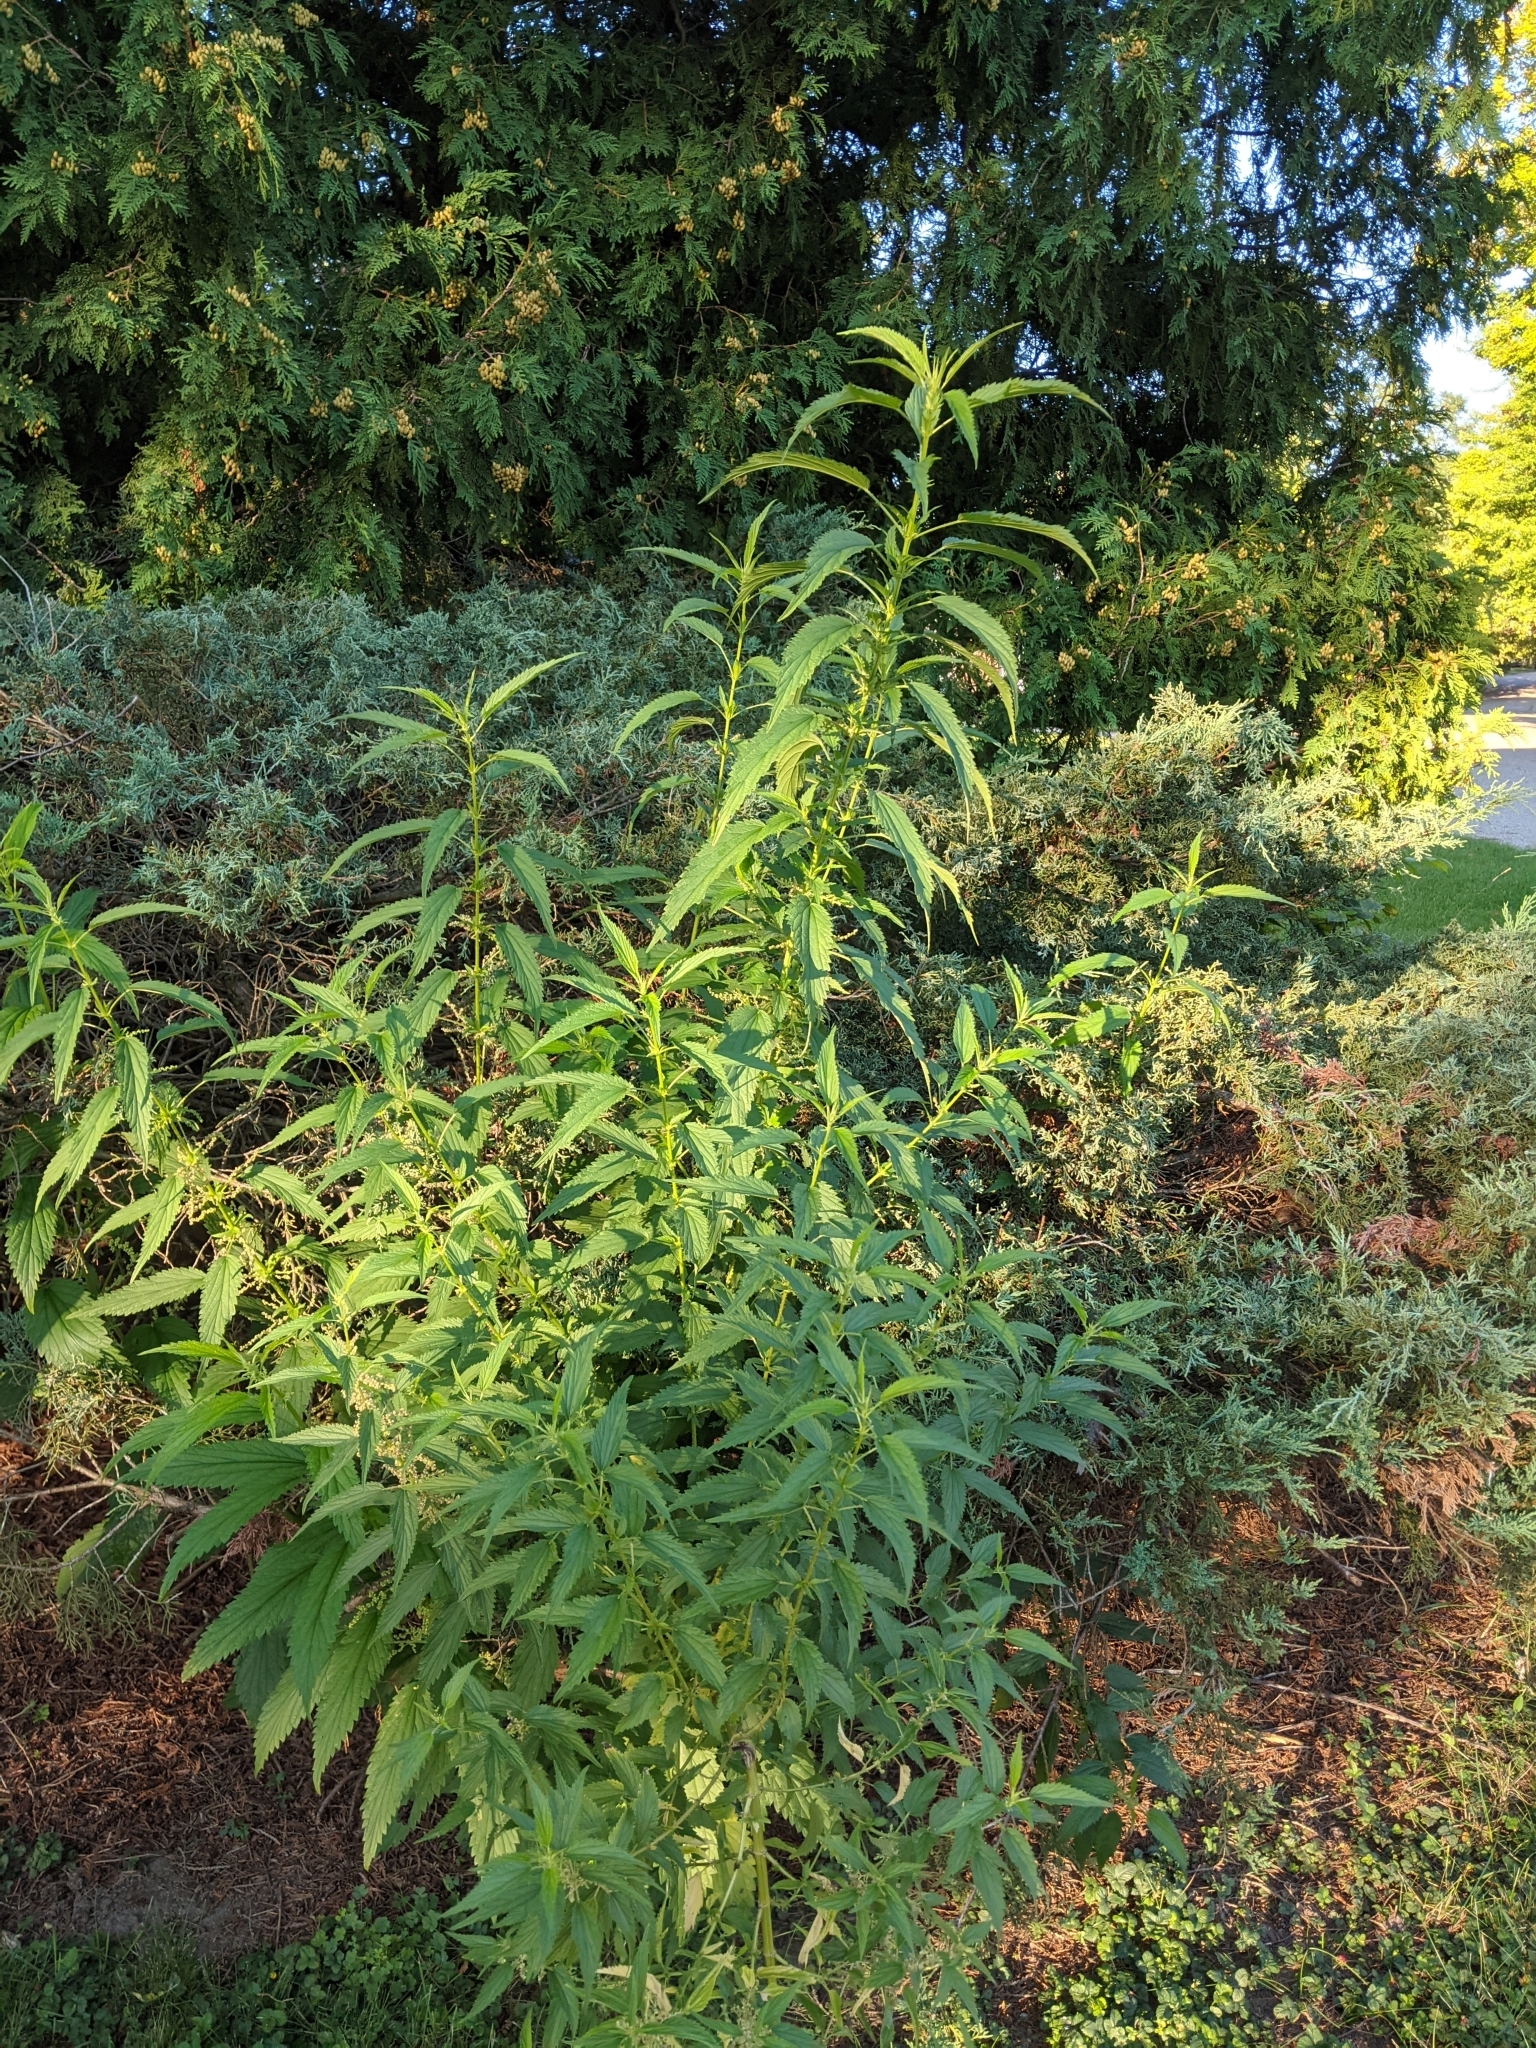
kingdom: Plantae
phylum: Tracheophyta
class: Magnoliopsida
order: Rosales
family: Urticaceae
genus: Urtica
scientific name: Urtica dioica
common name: Common nettle
